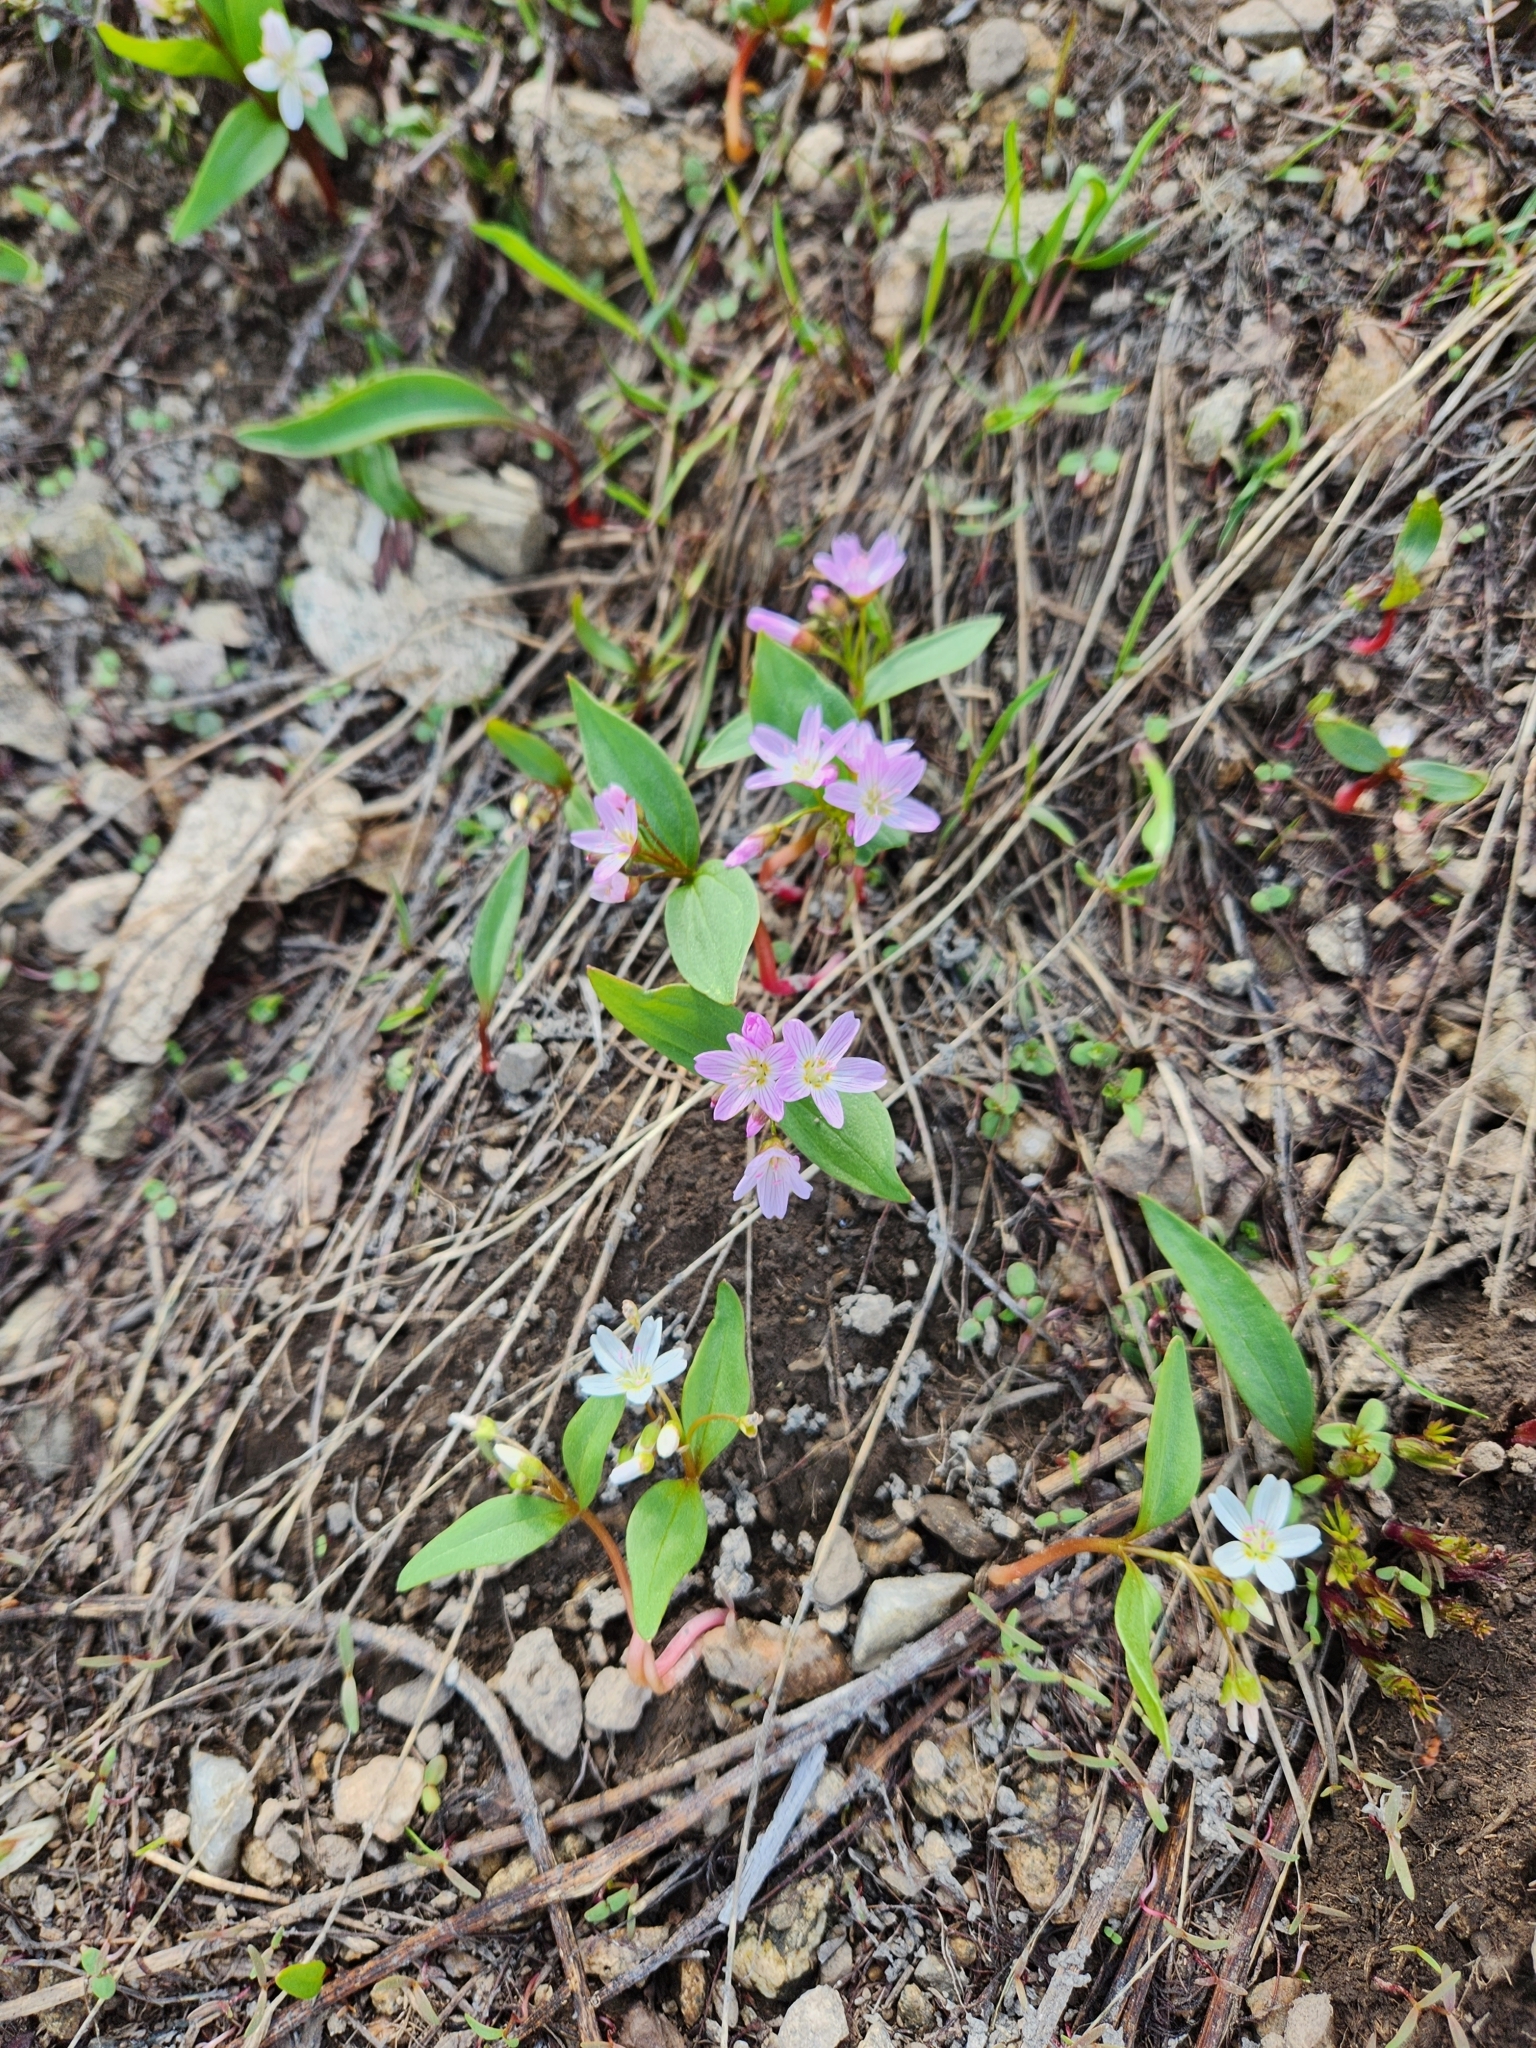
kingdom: Plantae
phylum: Tracheophyta
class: Magnoliopsida
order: Caryophyllales
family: Montiaceae
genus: Claytonia
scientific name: Claytonia lanceolata
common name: Western spring-beauty
